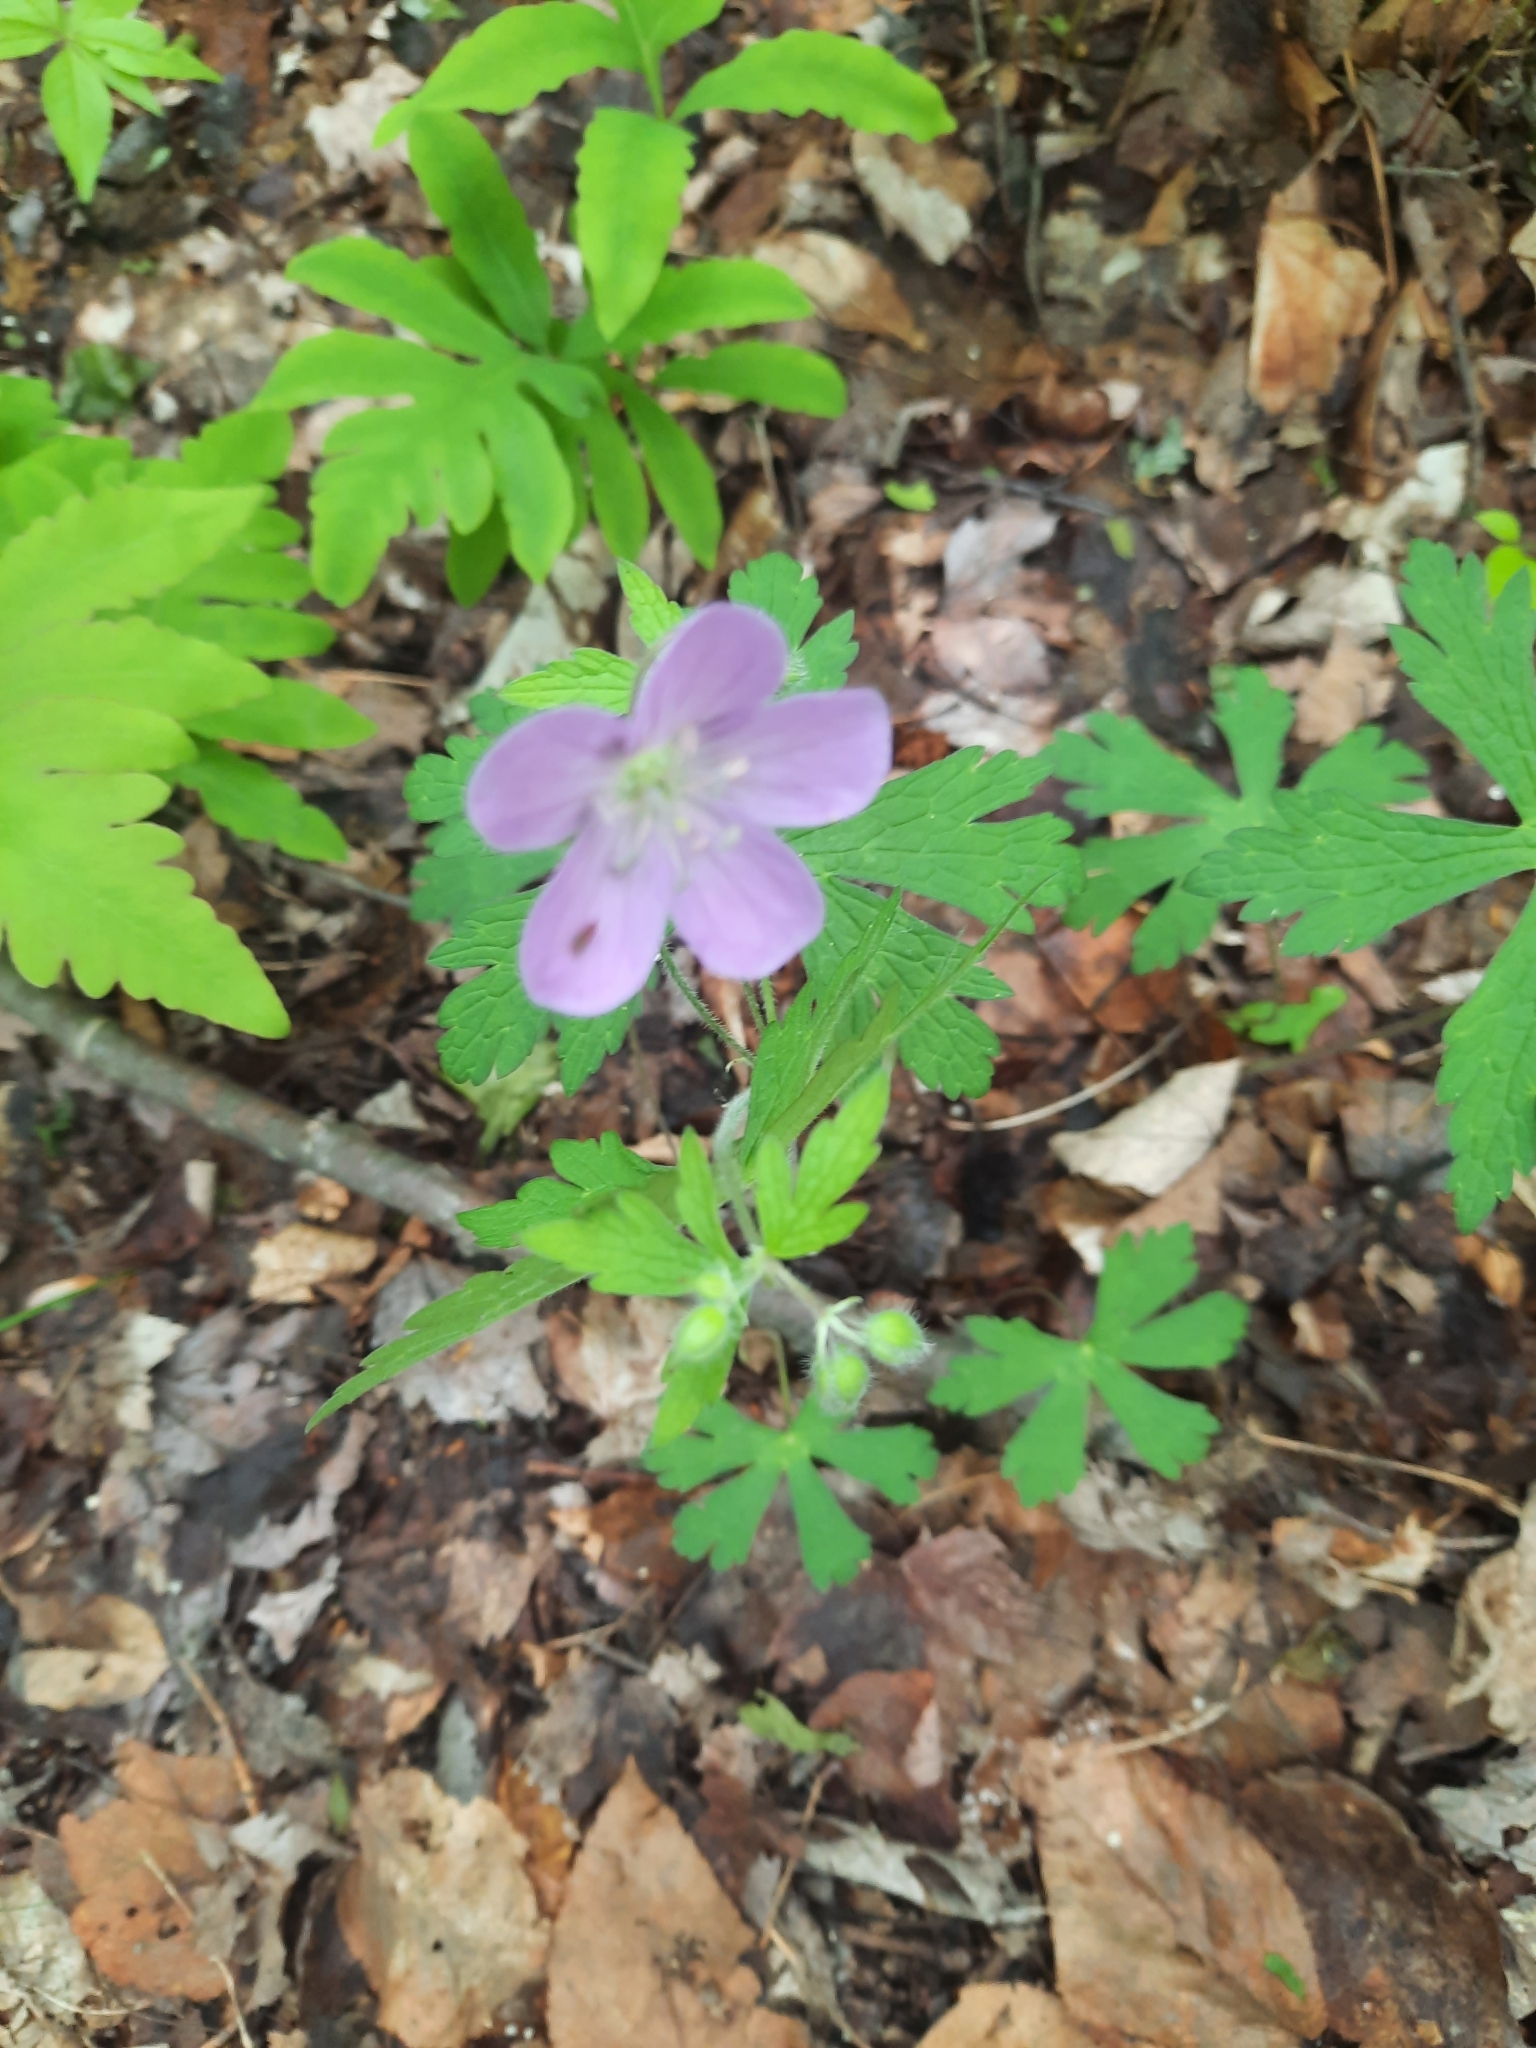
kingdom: Plantae
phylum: Tracheophyta
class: Magnoliopsida
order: Geraniales
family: Geraniaceae
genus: Geranium
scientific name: Geranium maculatum
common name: Spotted geranium
